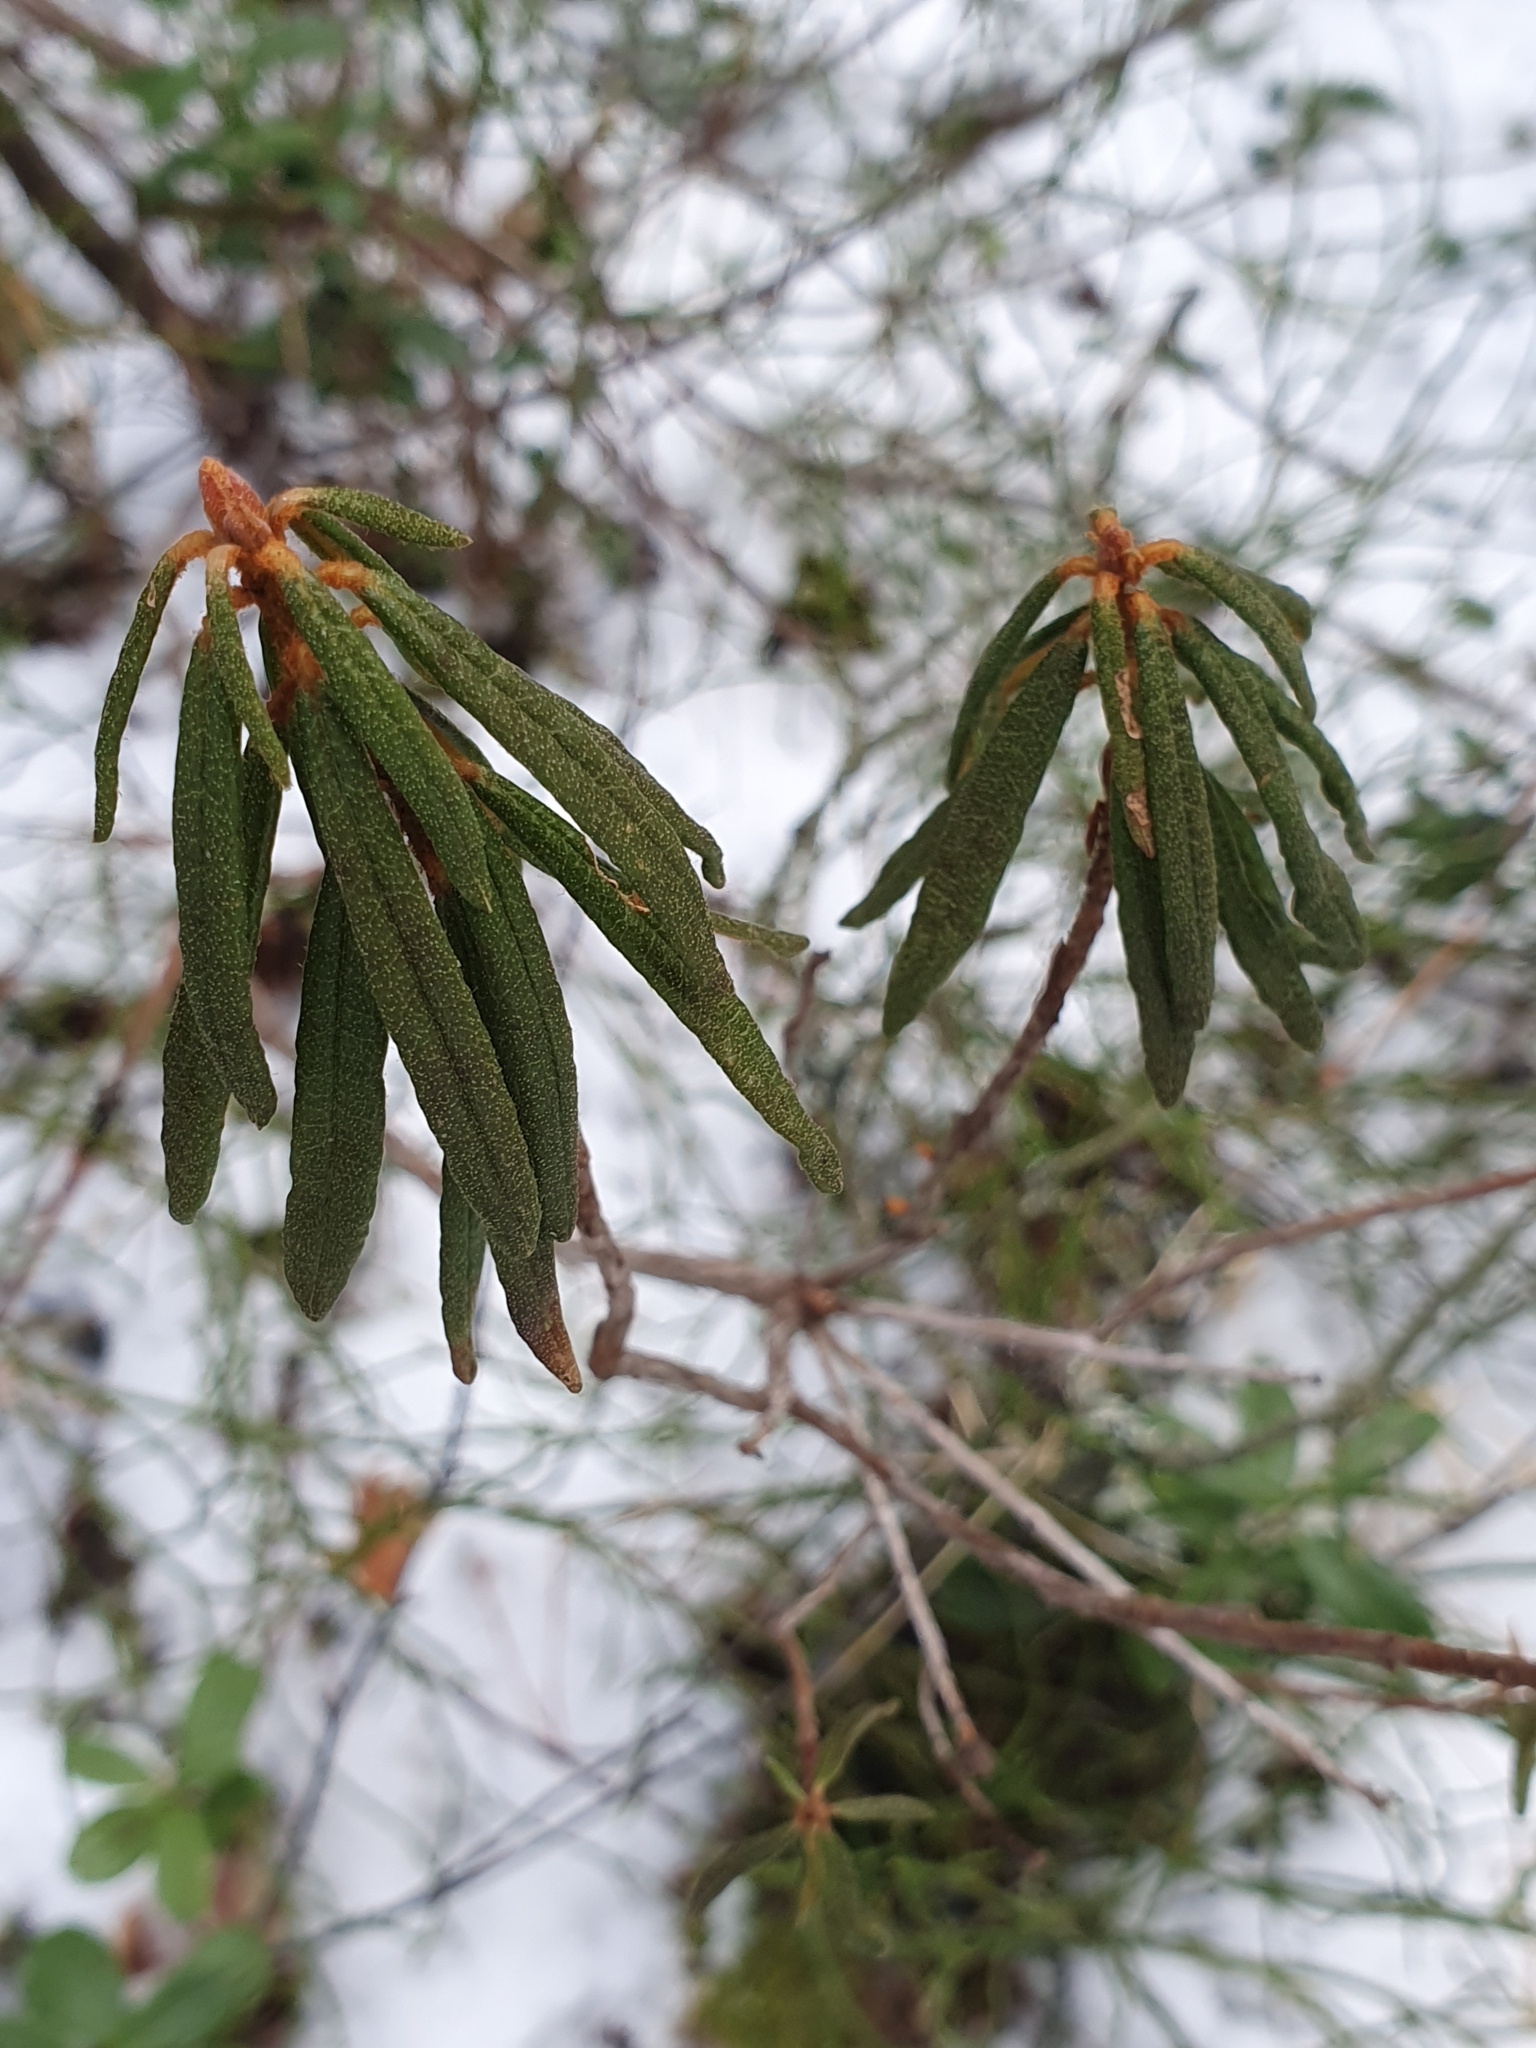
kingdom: Plantae
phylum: Tracheophyta
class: Magnoliopsida
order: Ericales
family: Ericaceae
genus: Rhododendron
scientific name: Rhododendron tomentosum
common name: Marsh labrador tea
